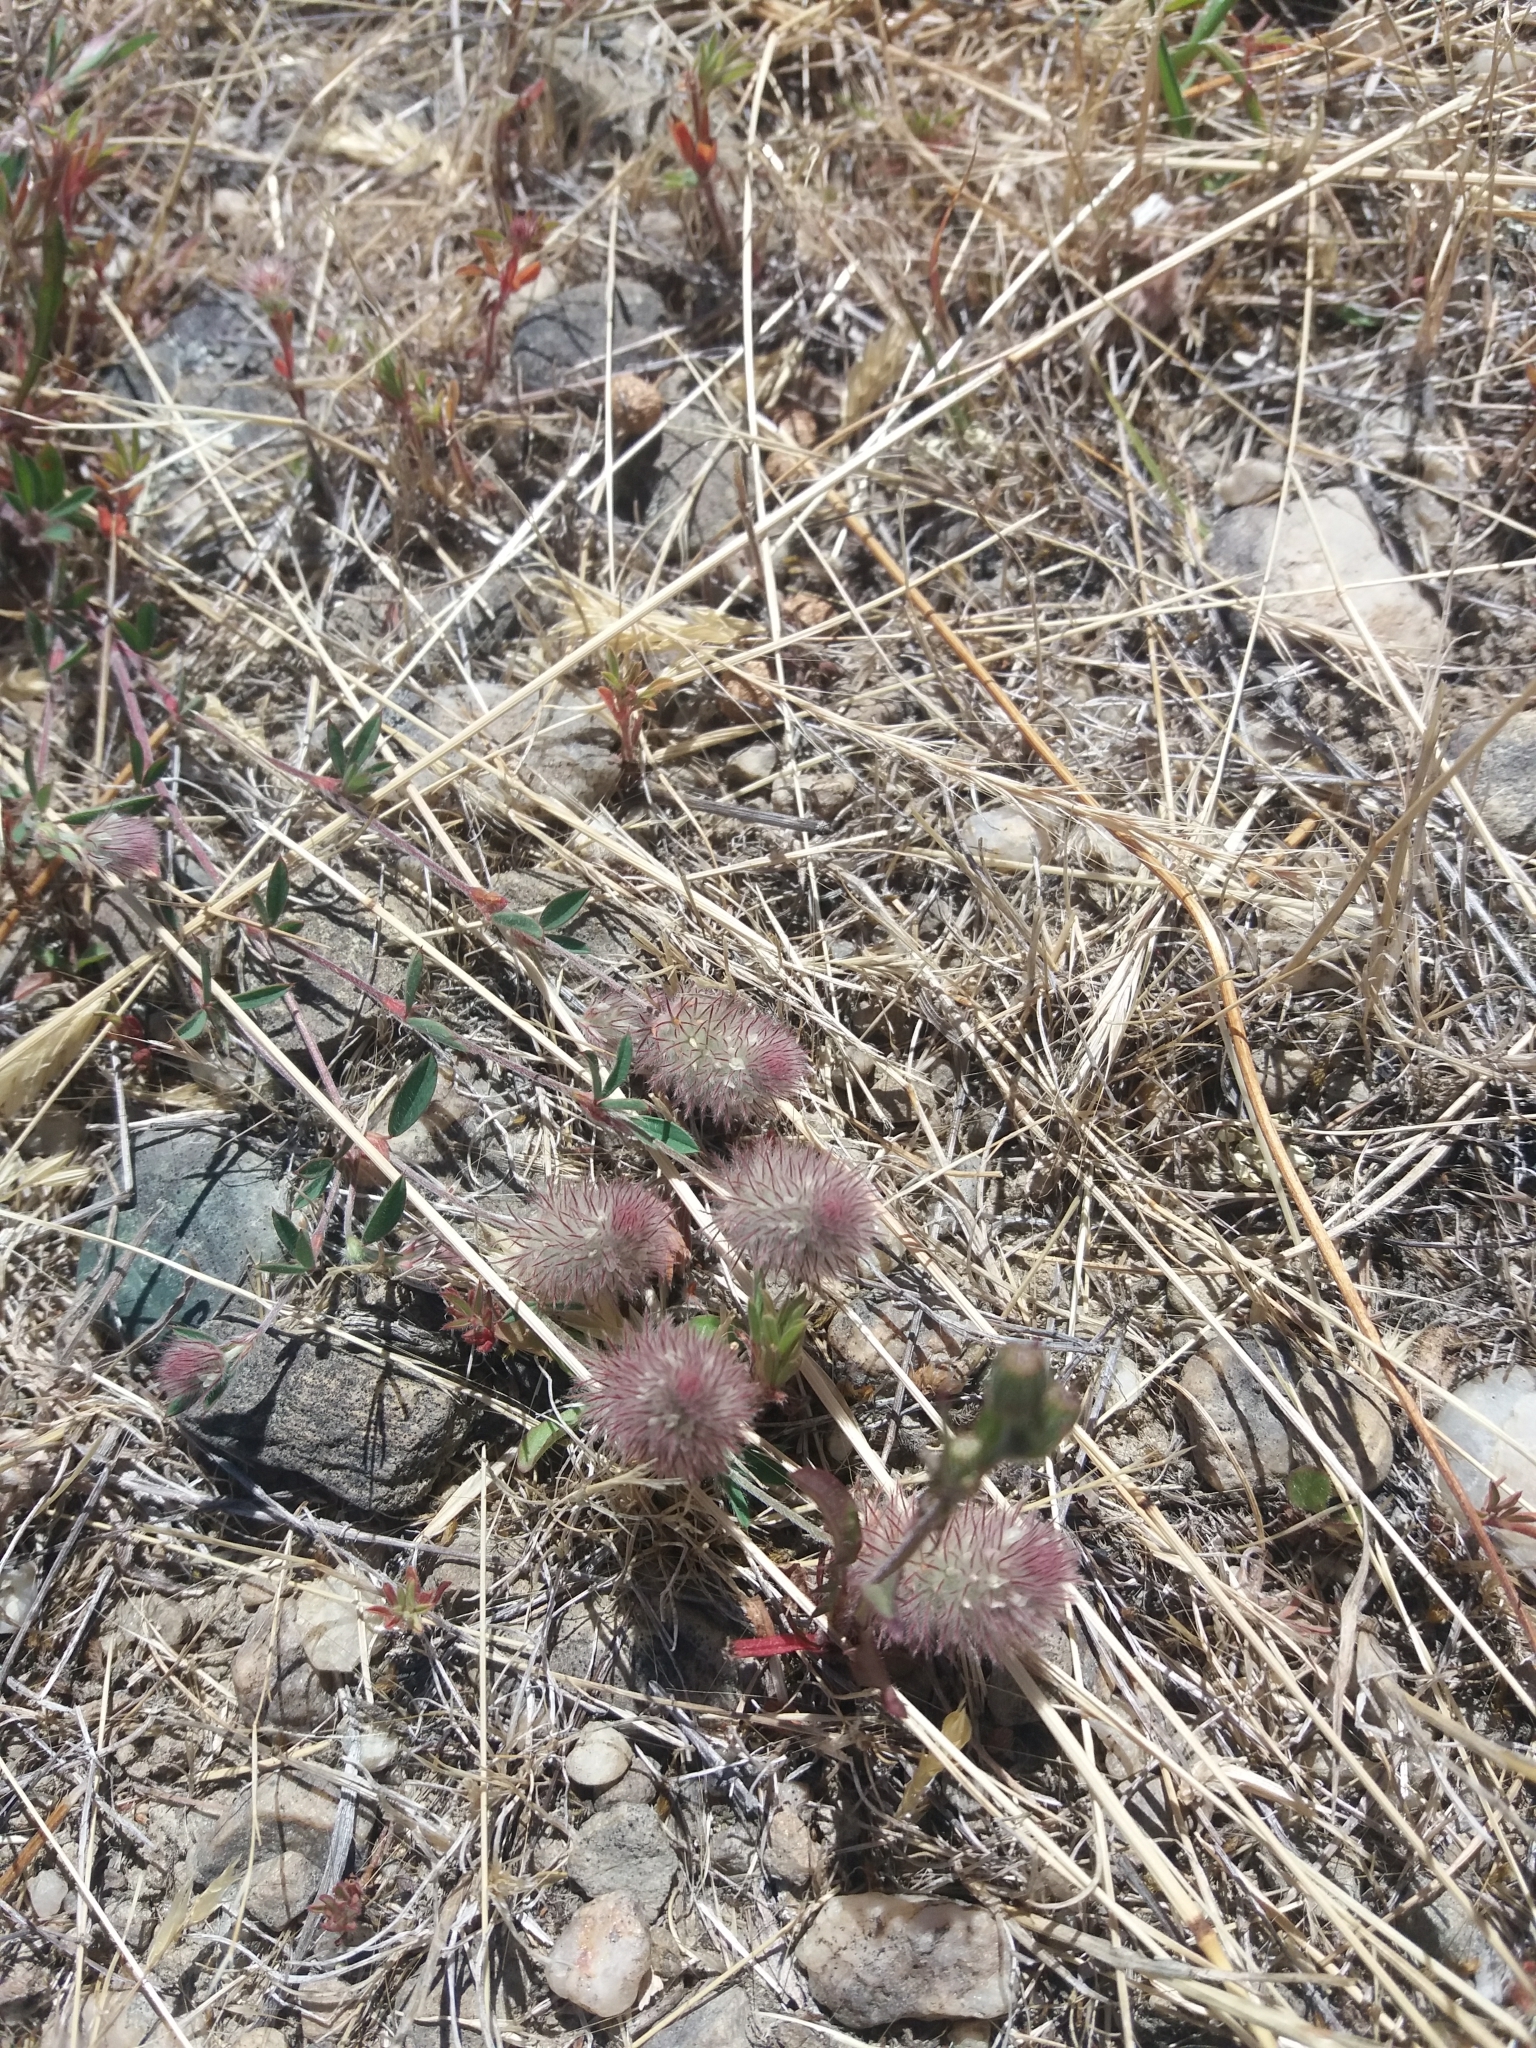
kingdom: Plantae
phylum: Tracheophyta
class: Magnoliopsida
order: Fabales
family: Fabaceae
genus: Trifolium
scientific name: Trifolium arvense
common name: Hare's-foot clover
